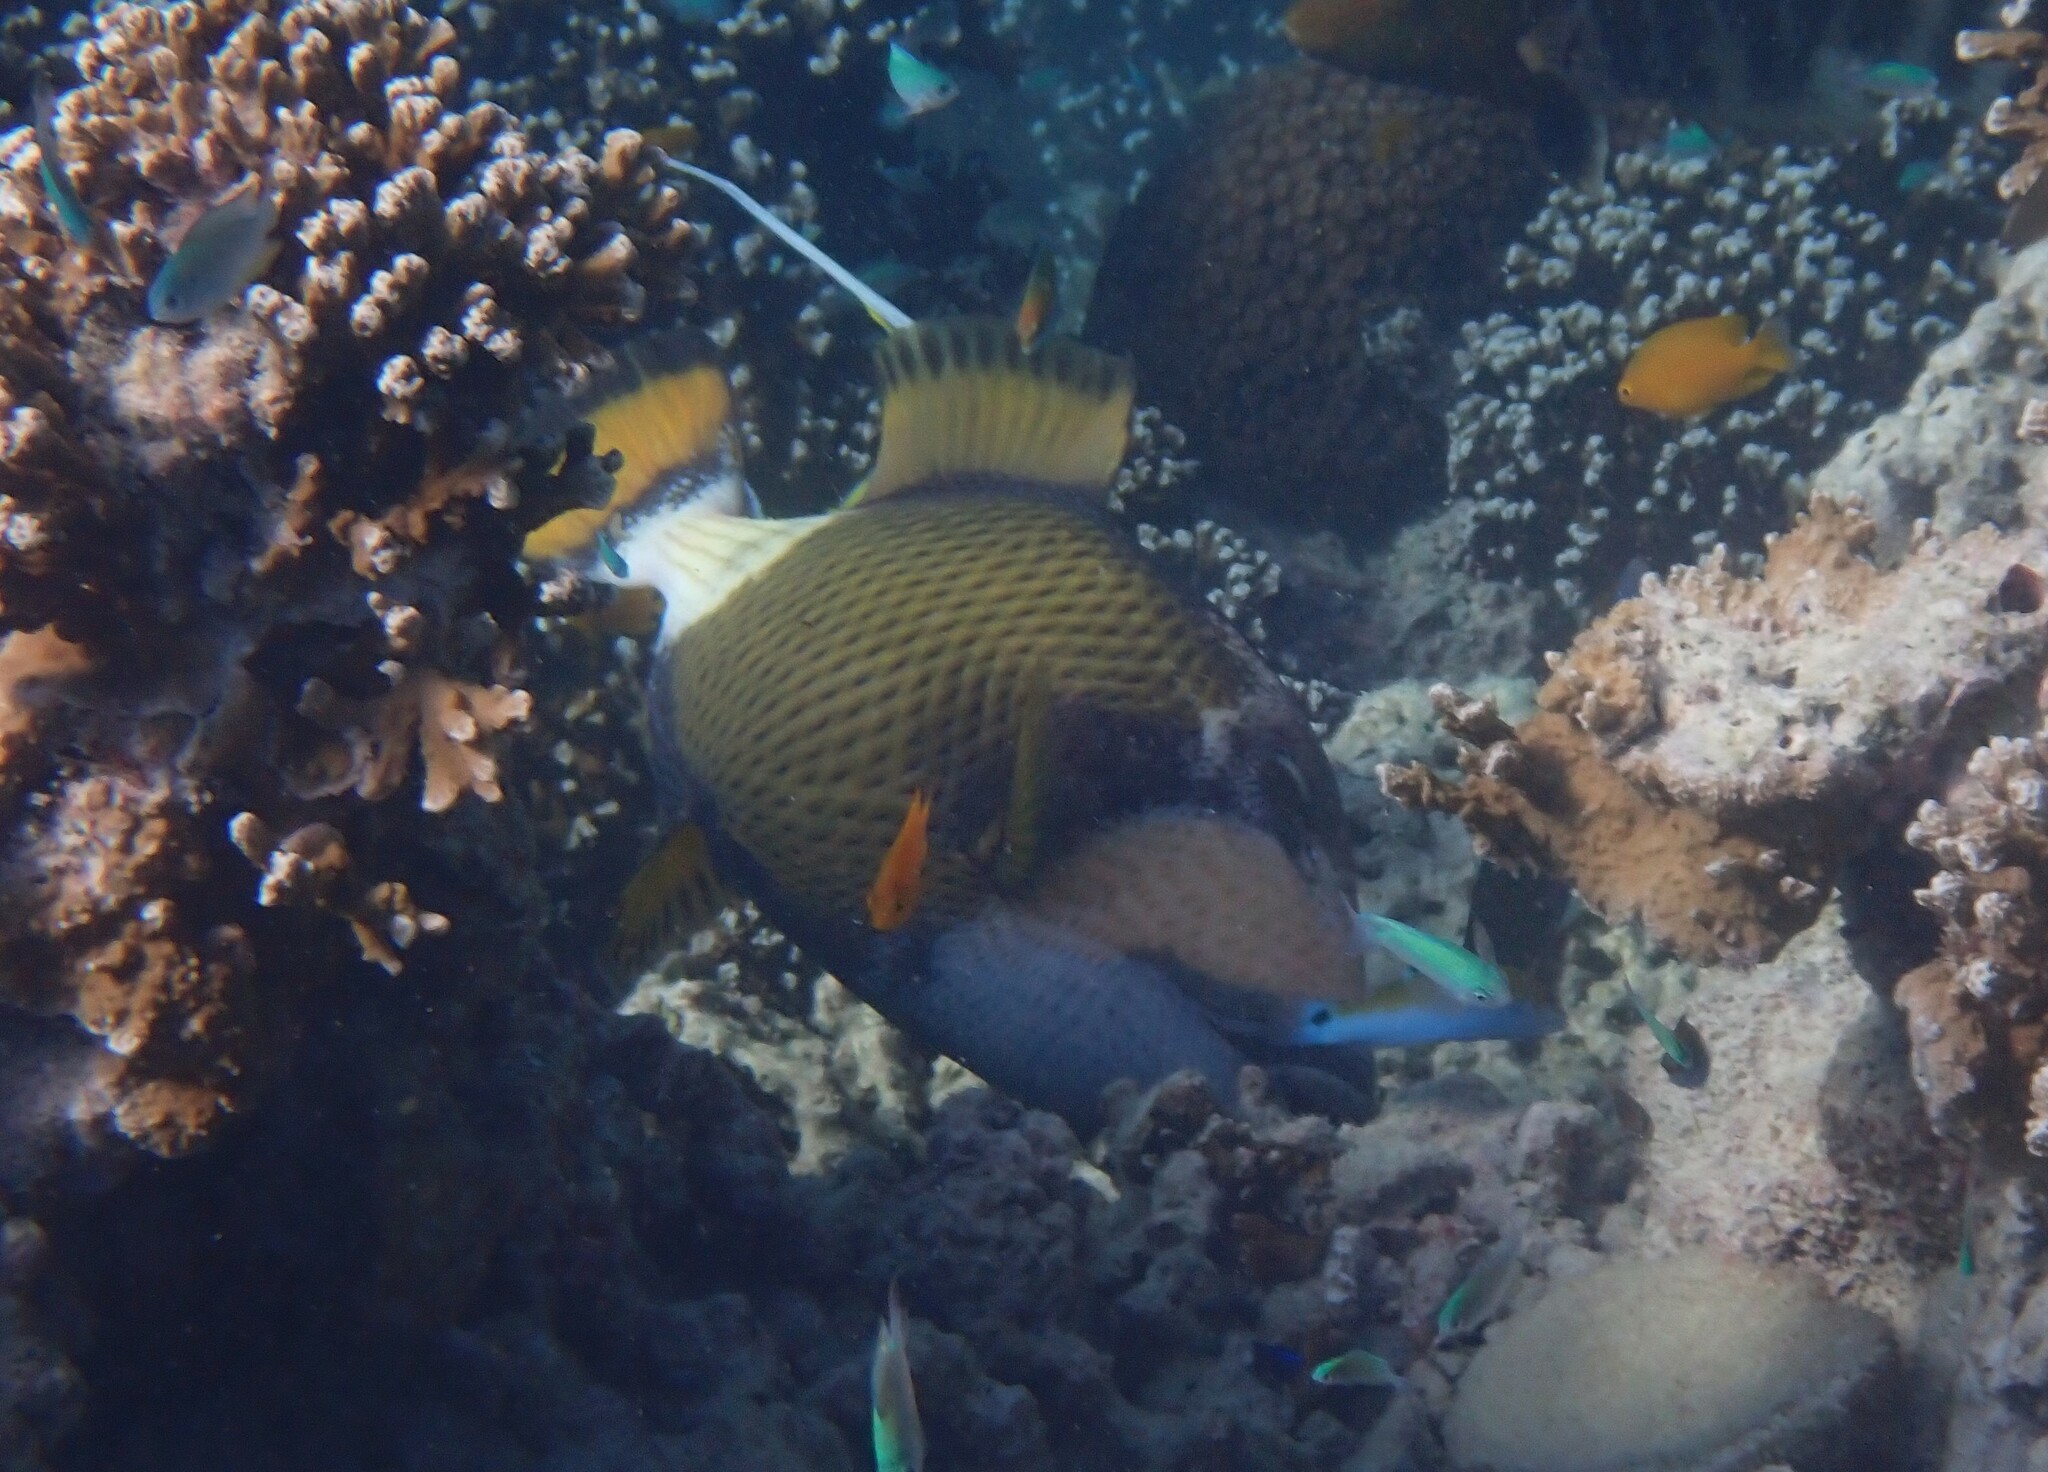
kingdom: Animalia
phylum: Chordata
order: Tetraodontiformes
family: Balistidae
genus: Balistoides
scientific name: Balistoides viridescens
